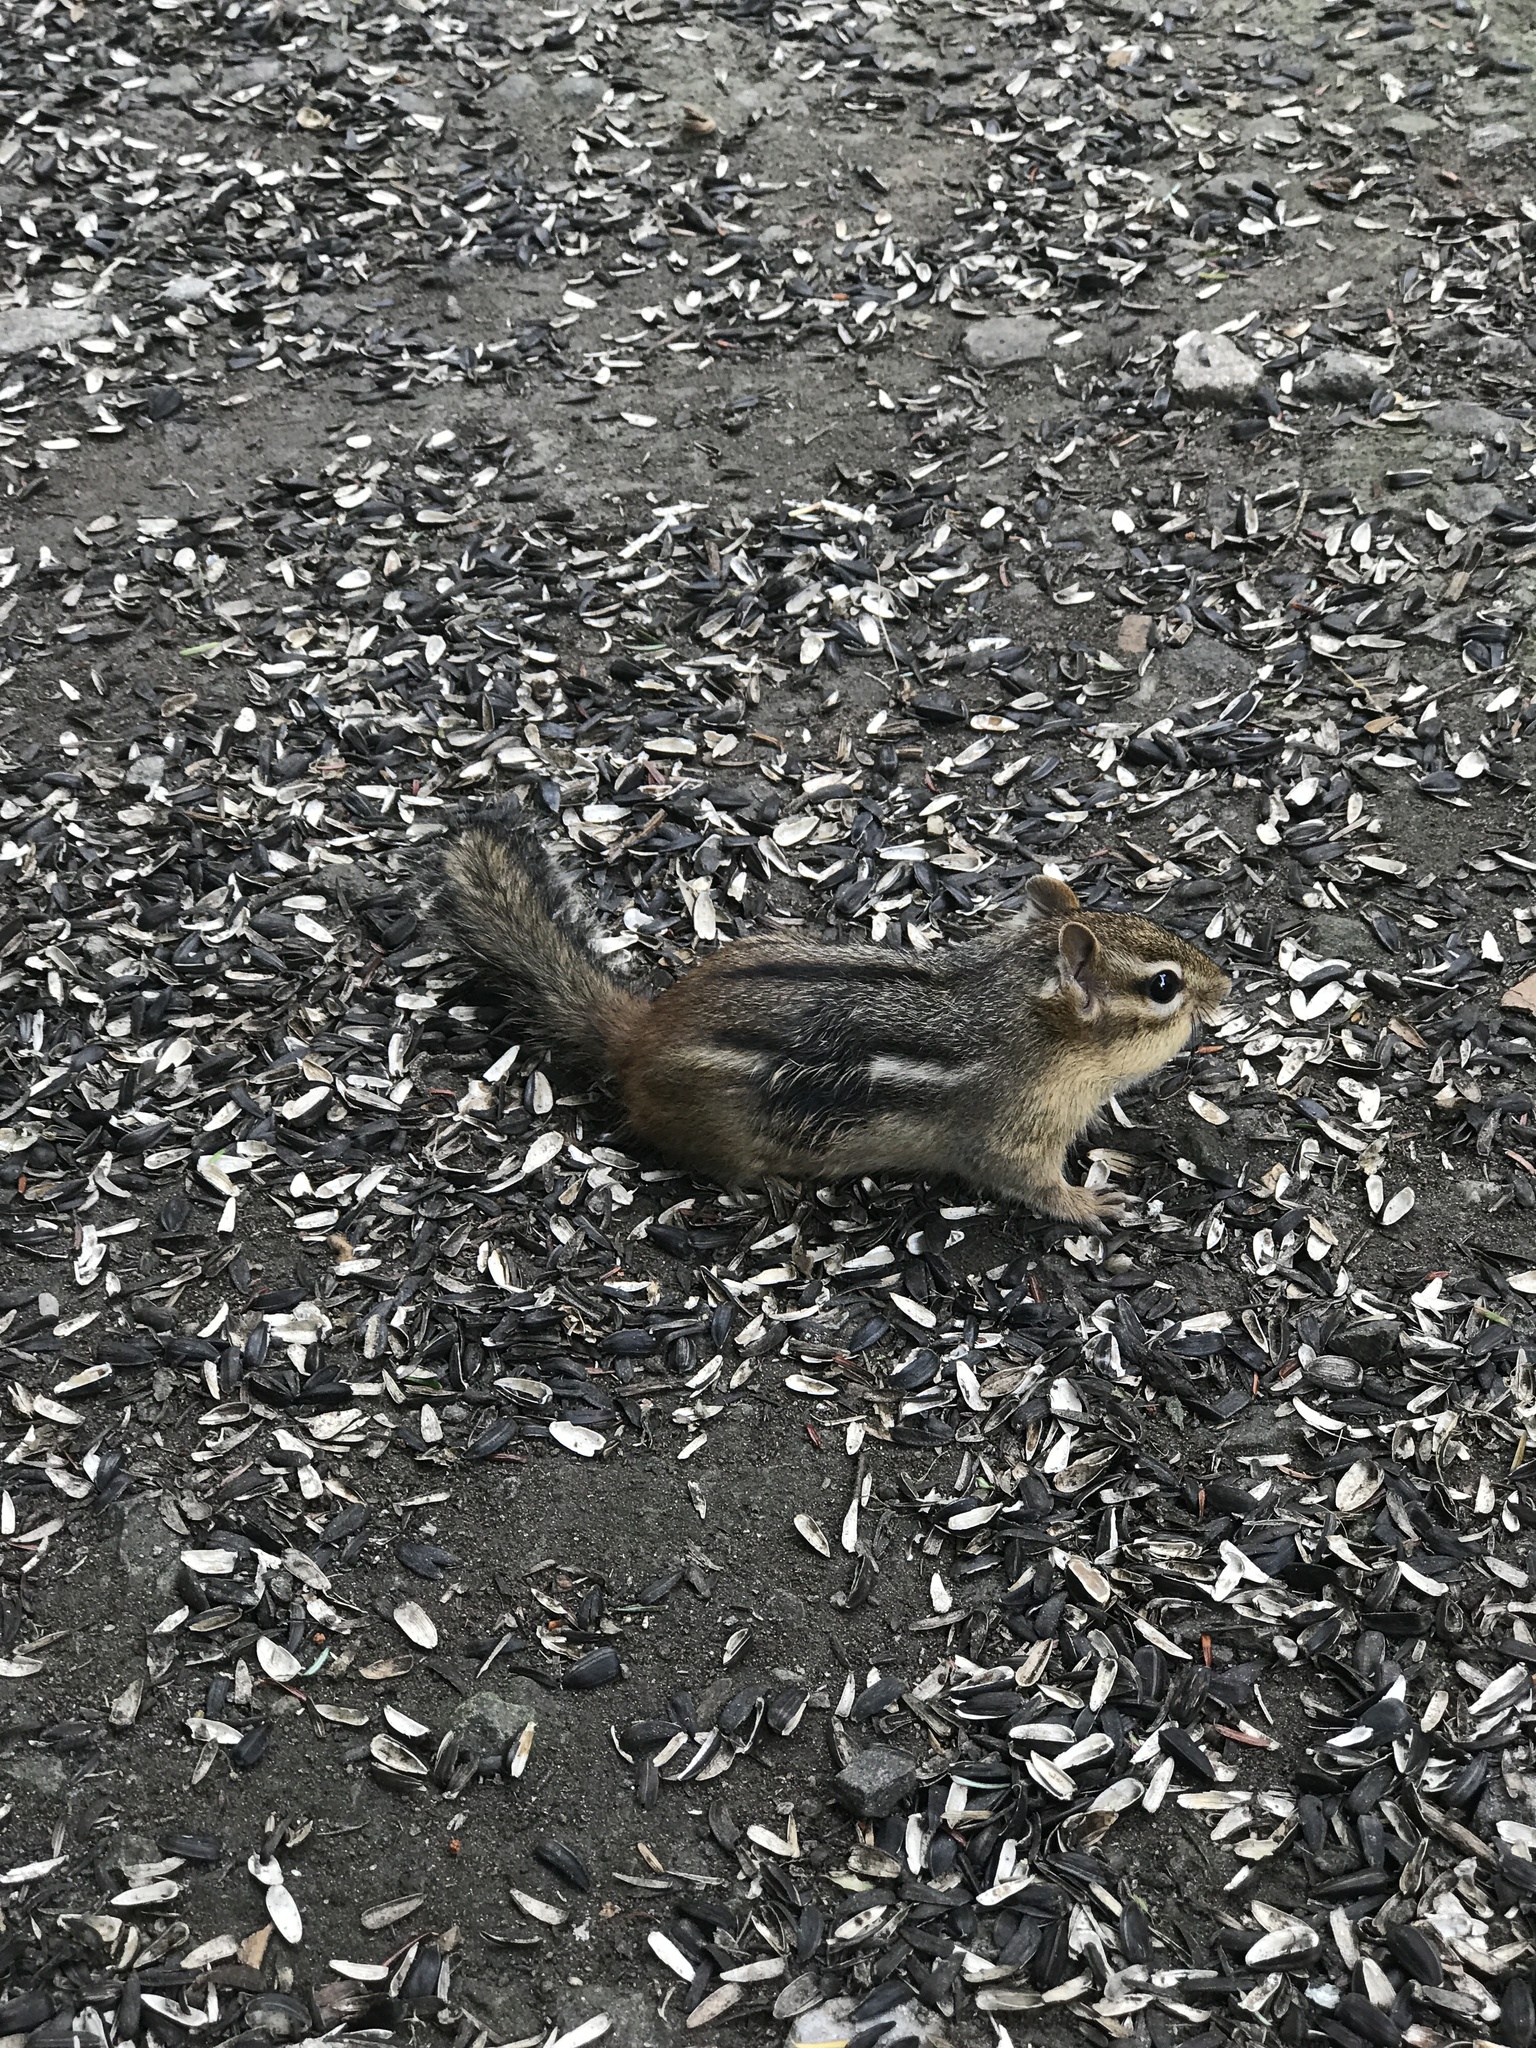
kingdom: Animalia
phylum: Chordata
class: Mammalia
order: Rodentia
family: Sciuridae
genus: Tamias
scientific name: Tamias striatus
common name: Eastern chipmunk
